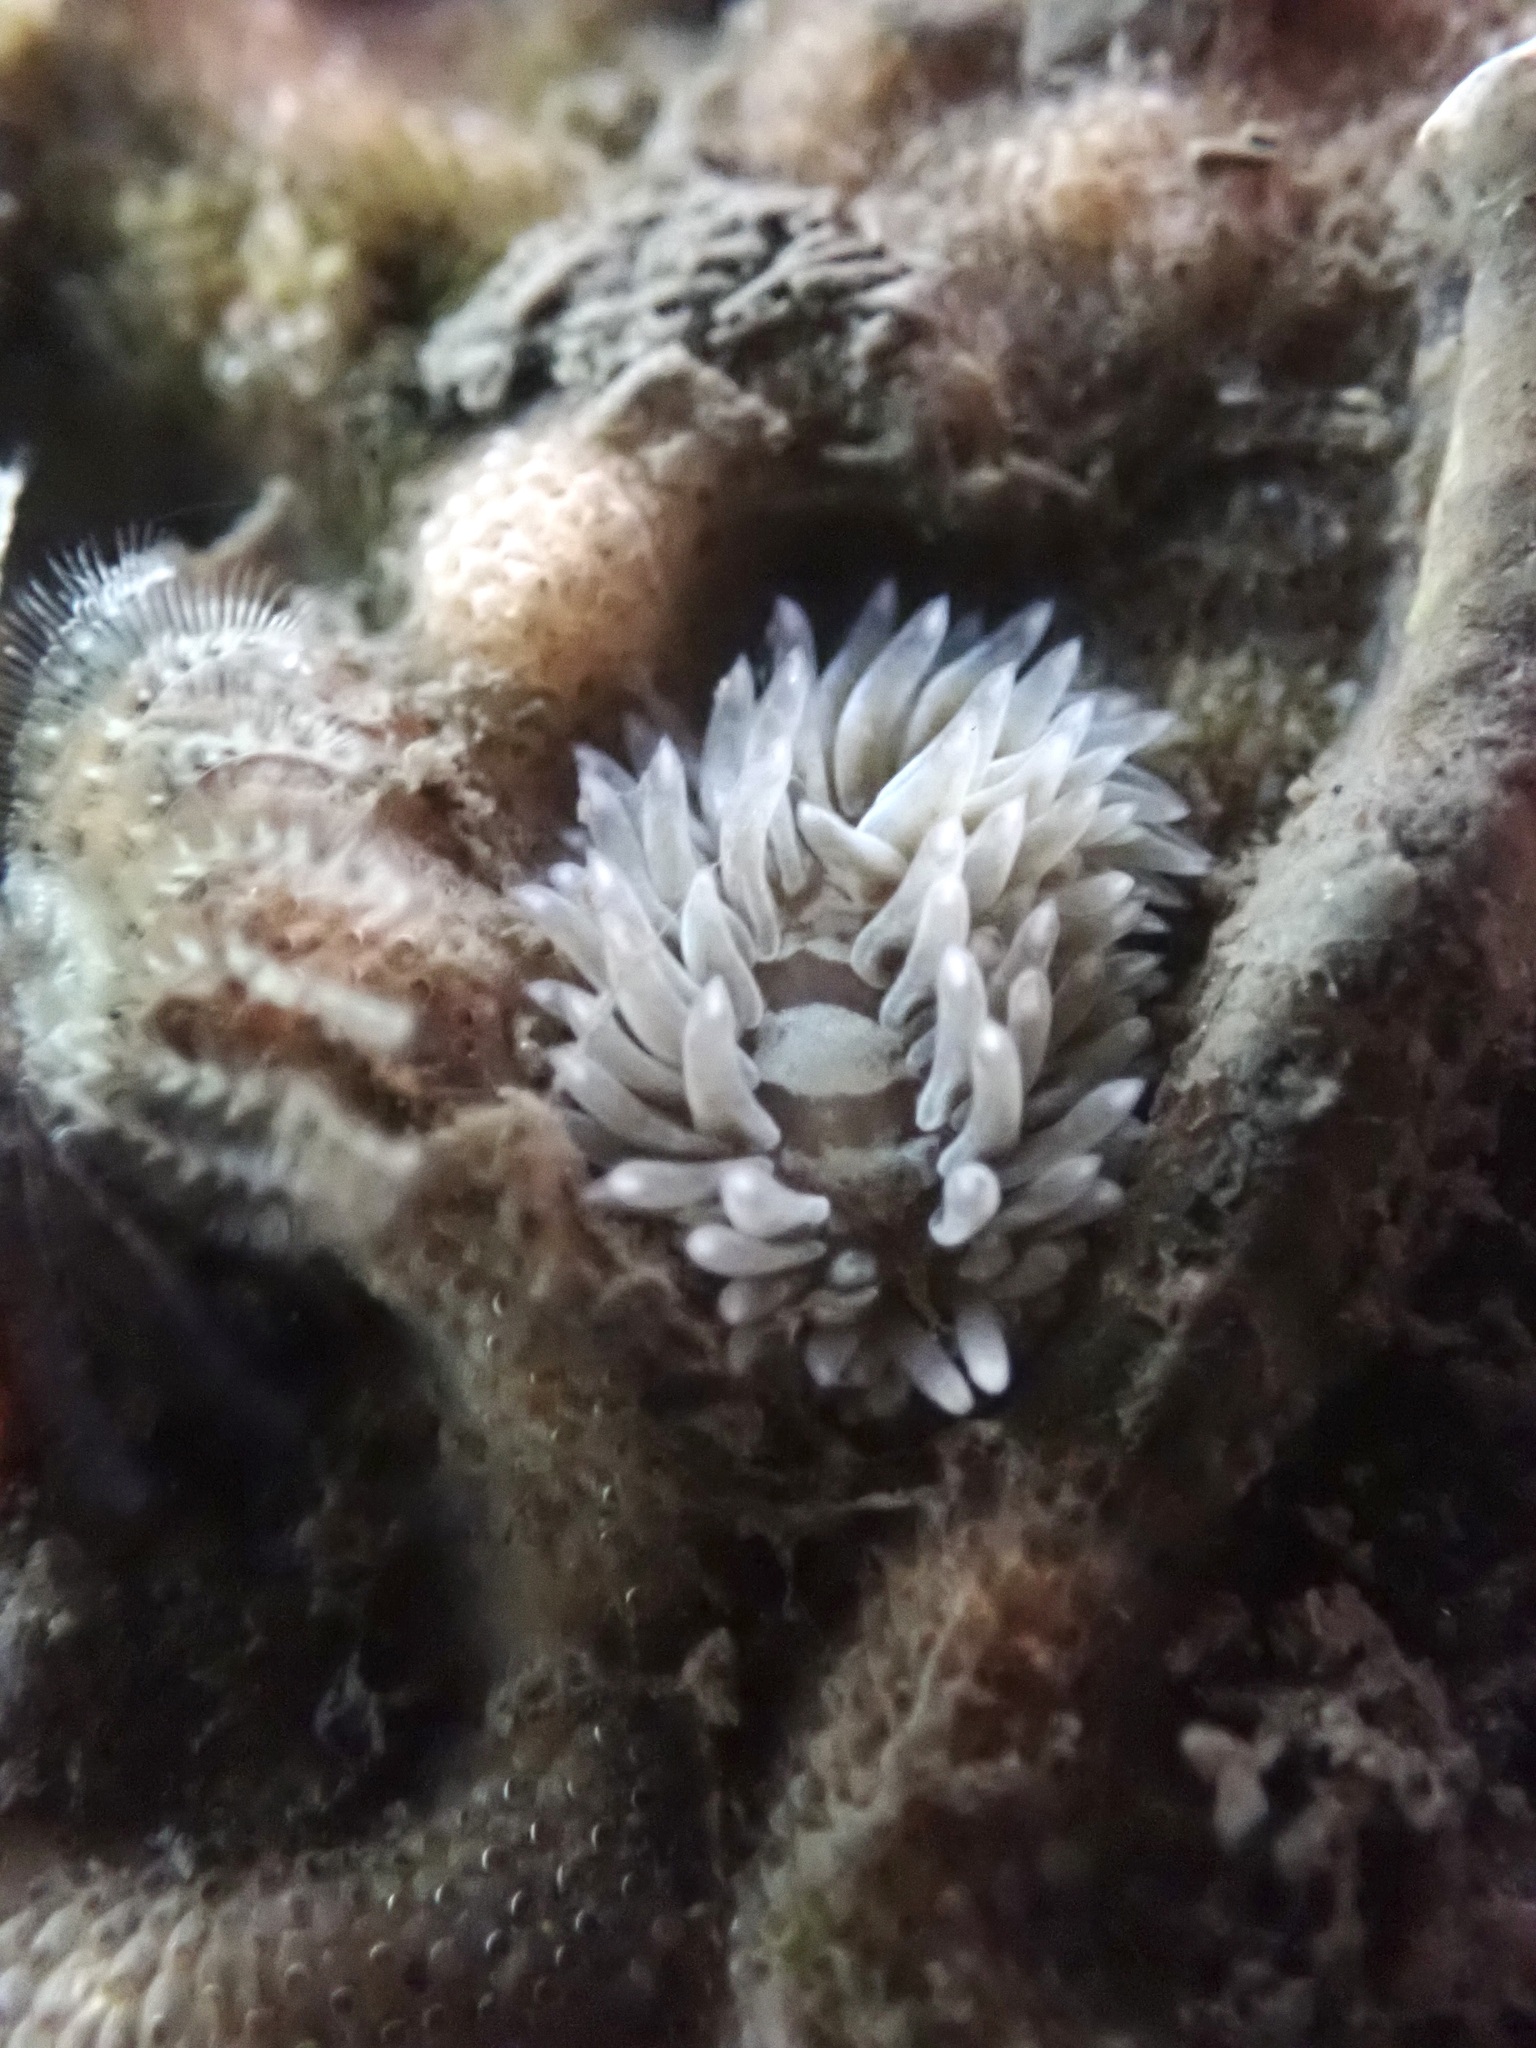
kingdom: Animalia
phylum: Mollusca
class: Gastropoda
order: Nudibranchia
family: Aeolidiidae
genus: Aeolidia
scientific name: Aeolidia loui
